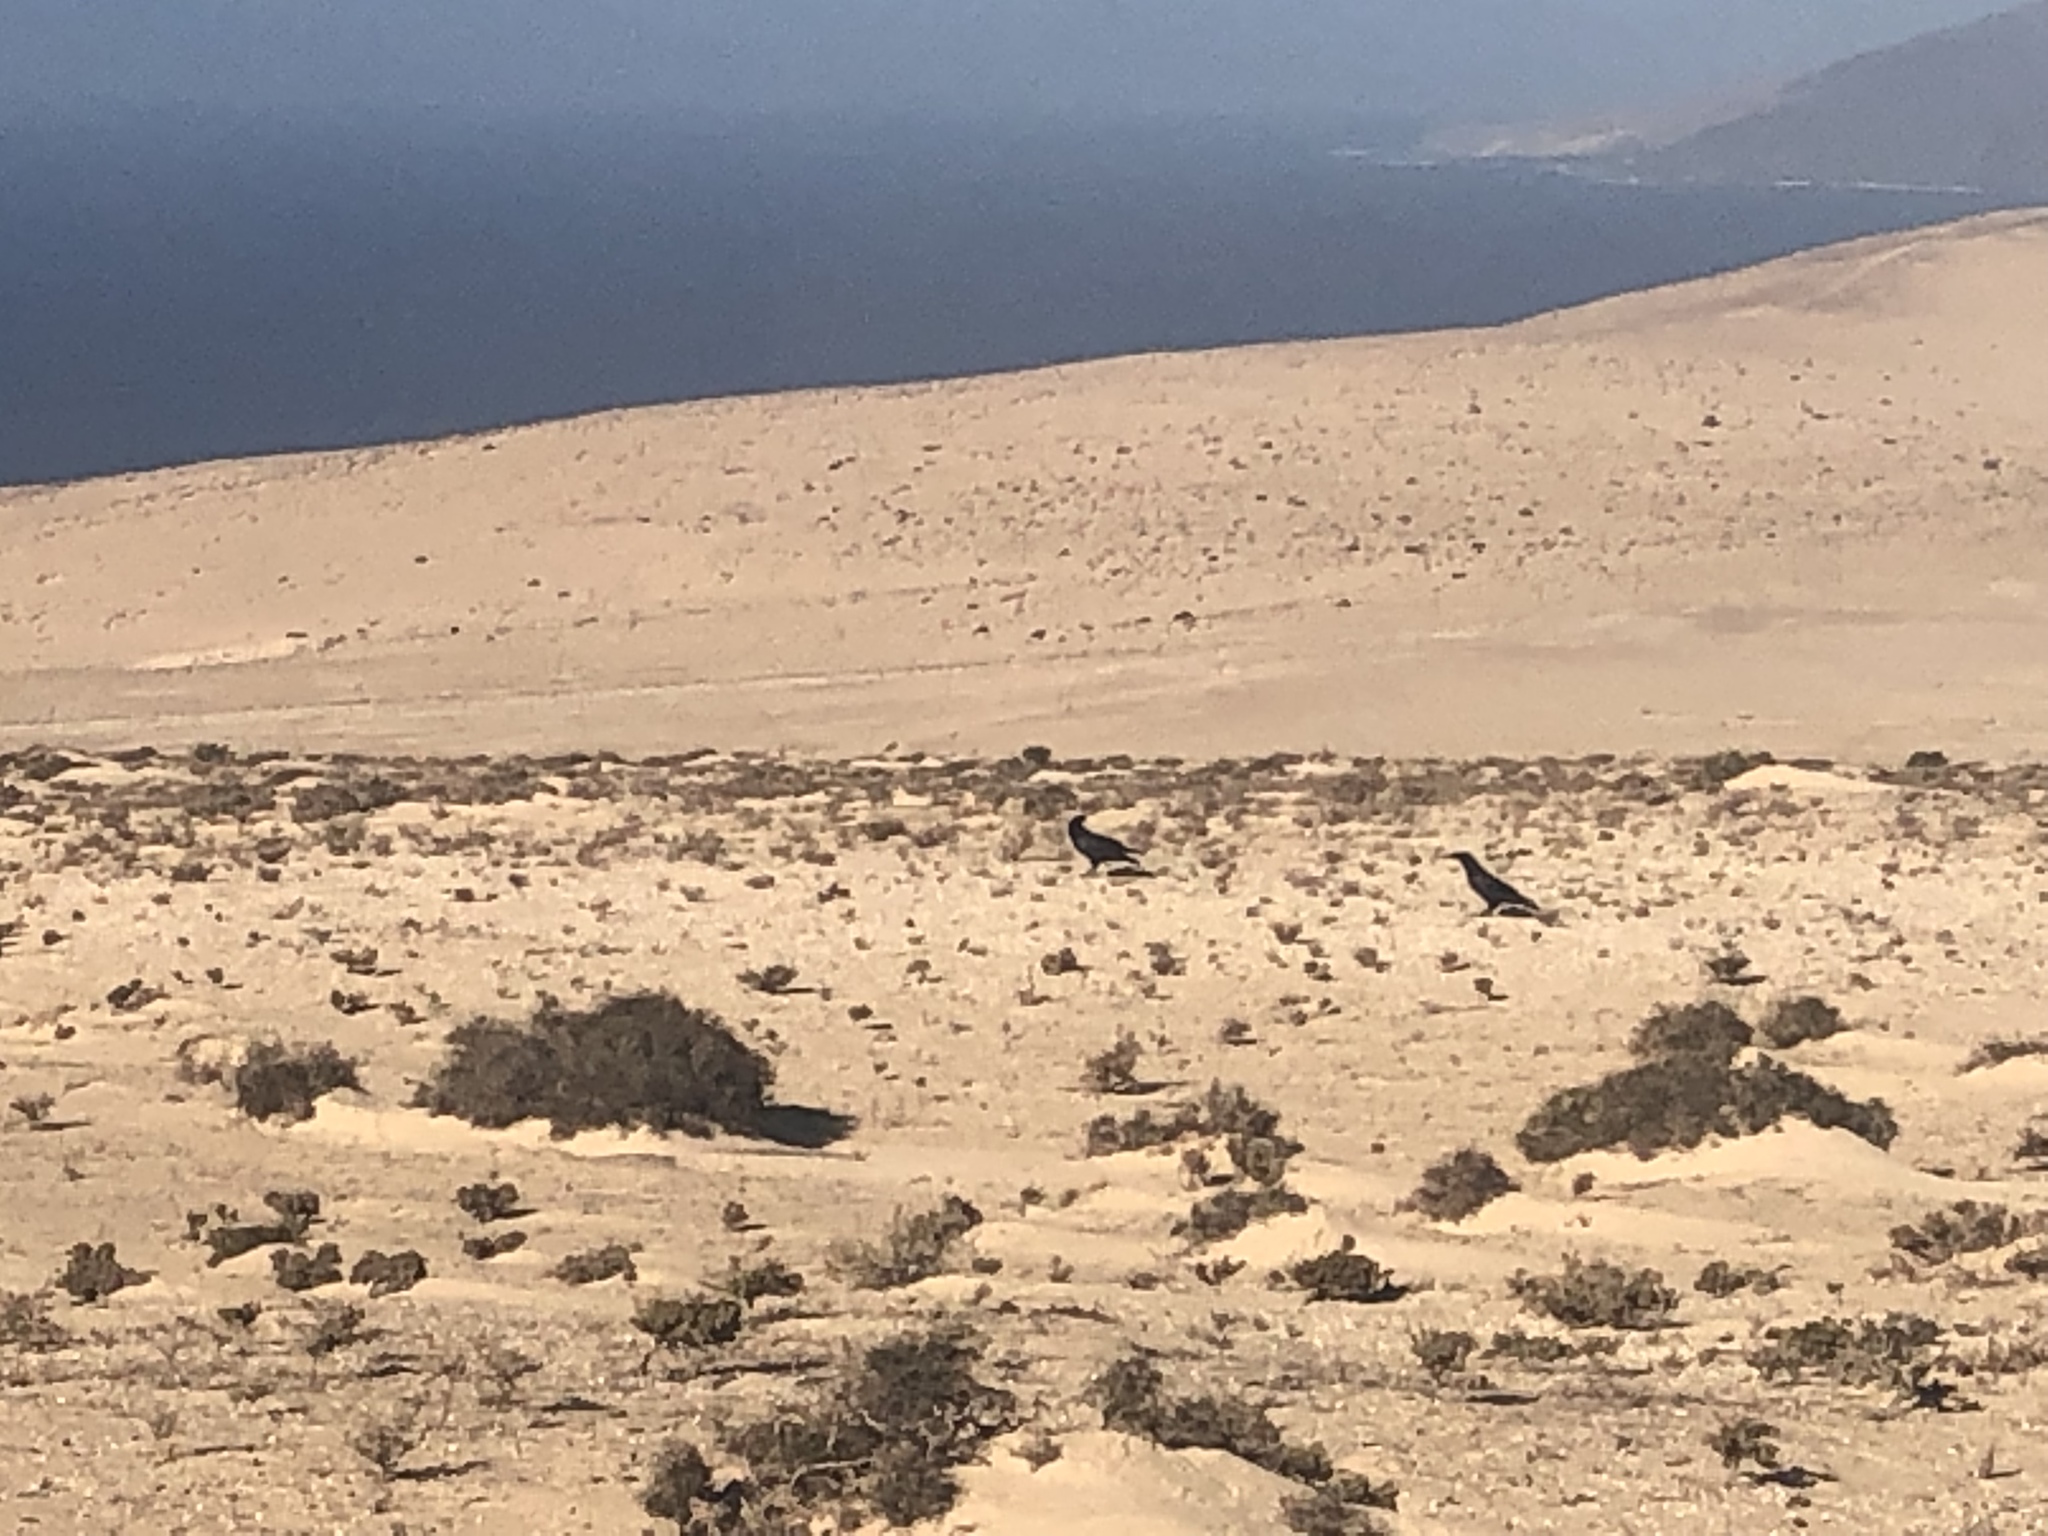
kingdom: Animalia
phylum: Chordata
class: Aves
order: Passeriformes
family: Corvidae
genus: Corvus
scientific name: Corvus corax
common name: Common raven
